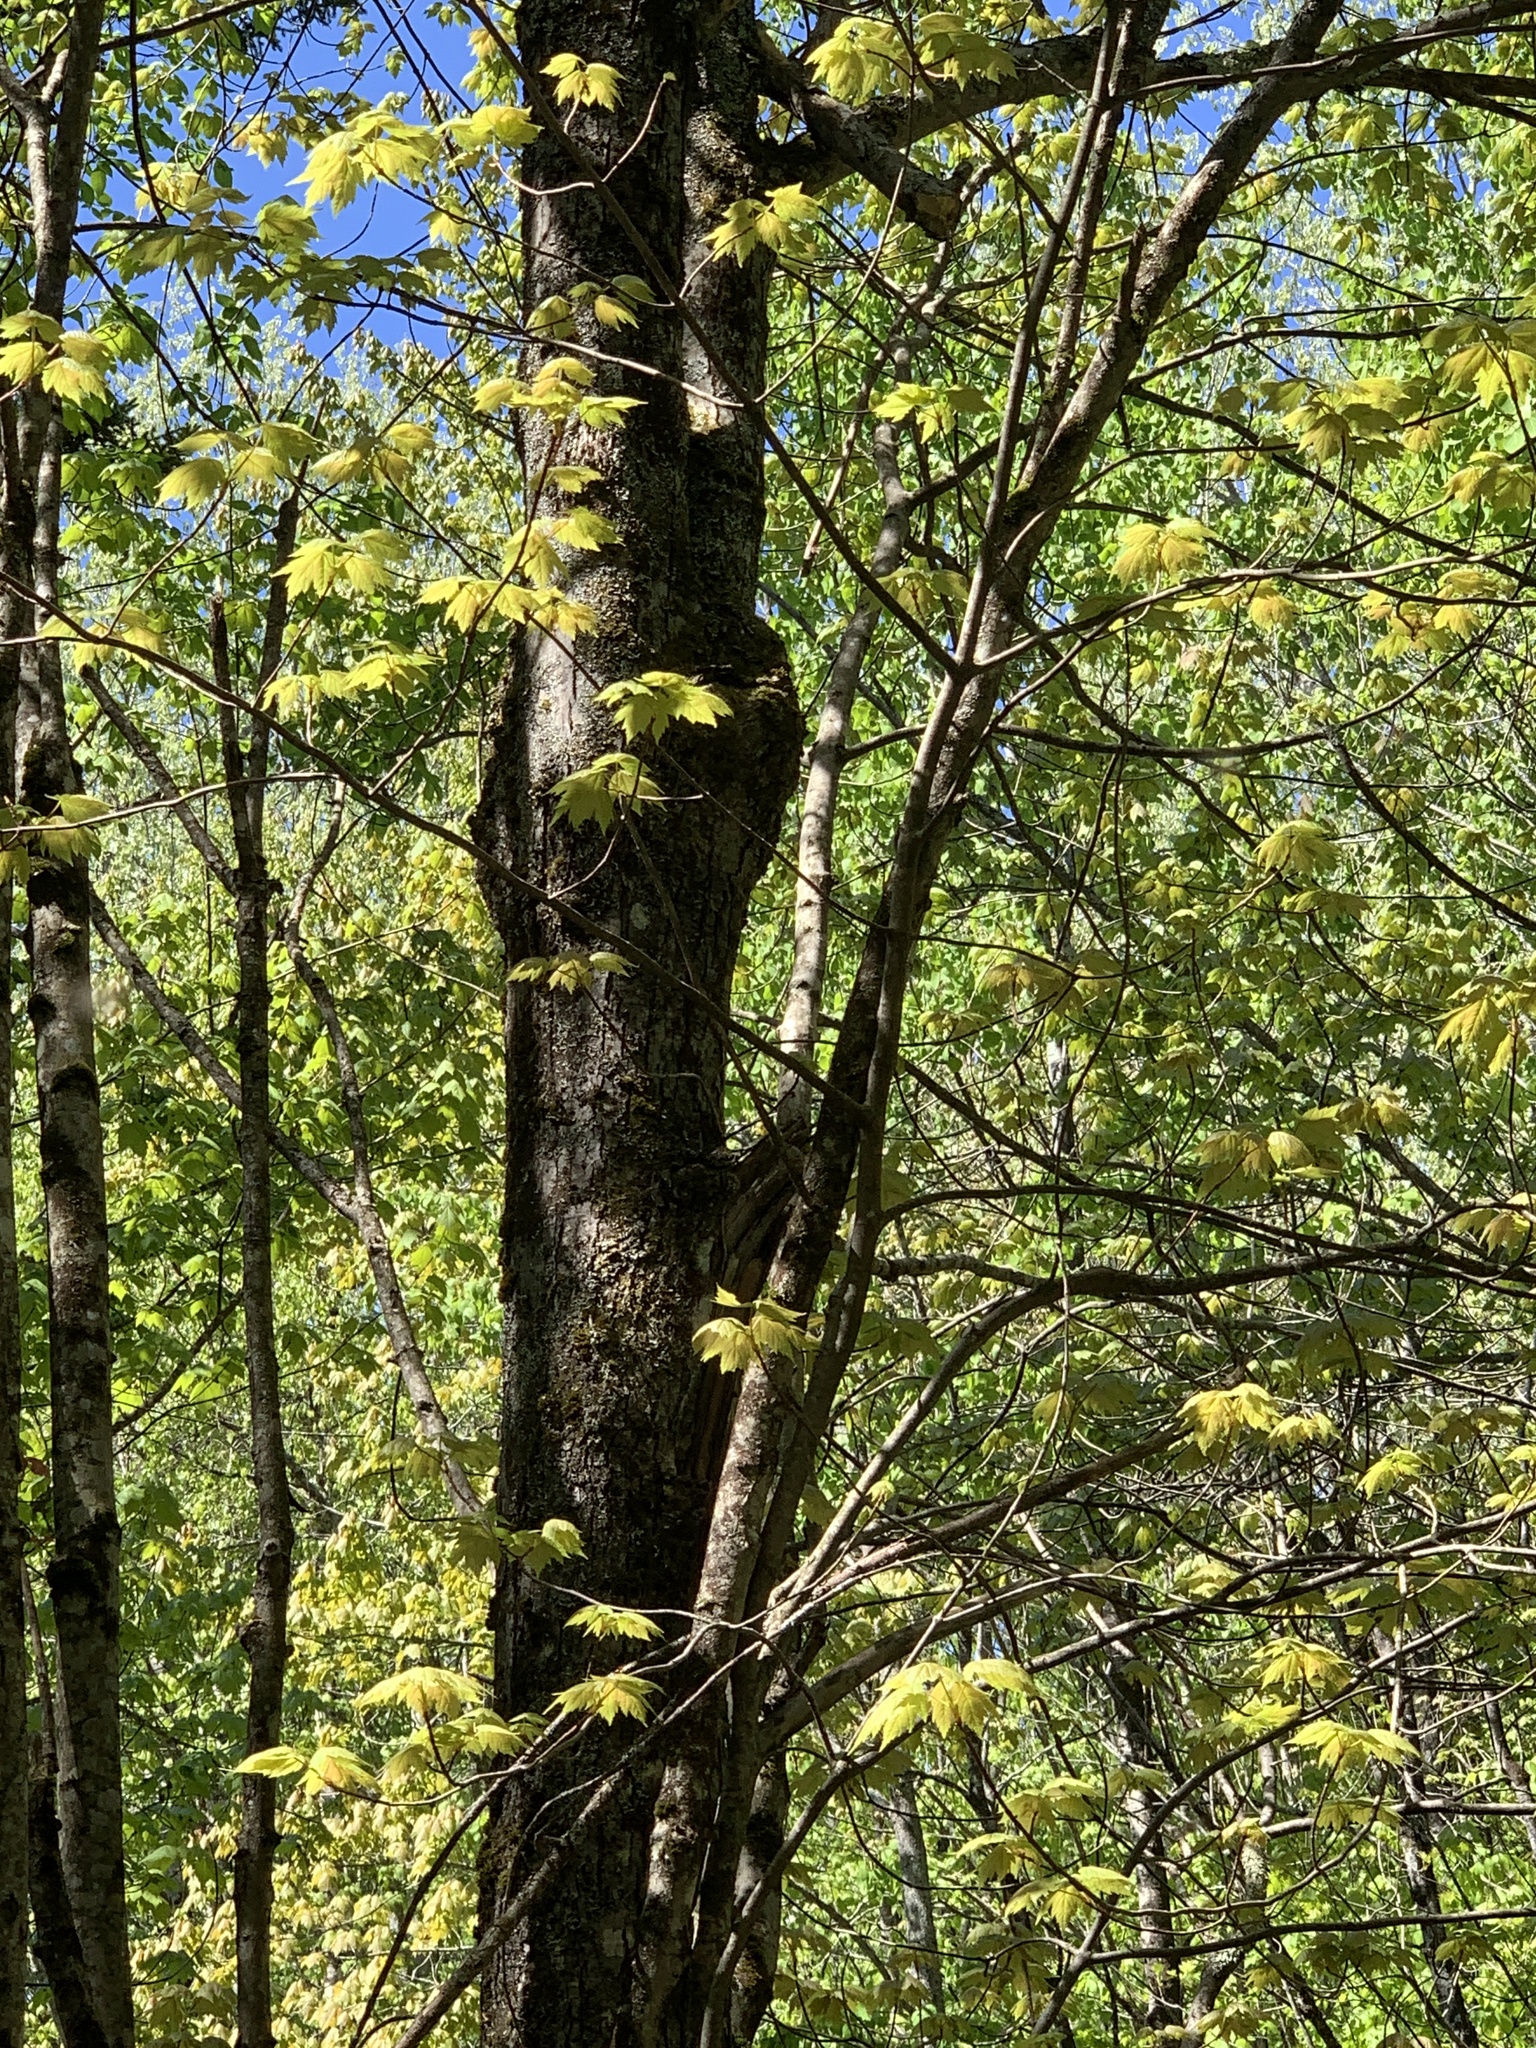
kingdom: Plantae
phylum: Tracheophyta
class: Magnoliopsida
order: Sapindales
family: Sapindaceae
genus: Acer
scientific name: Acer rubrum
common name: Red maple
